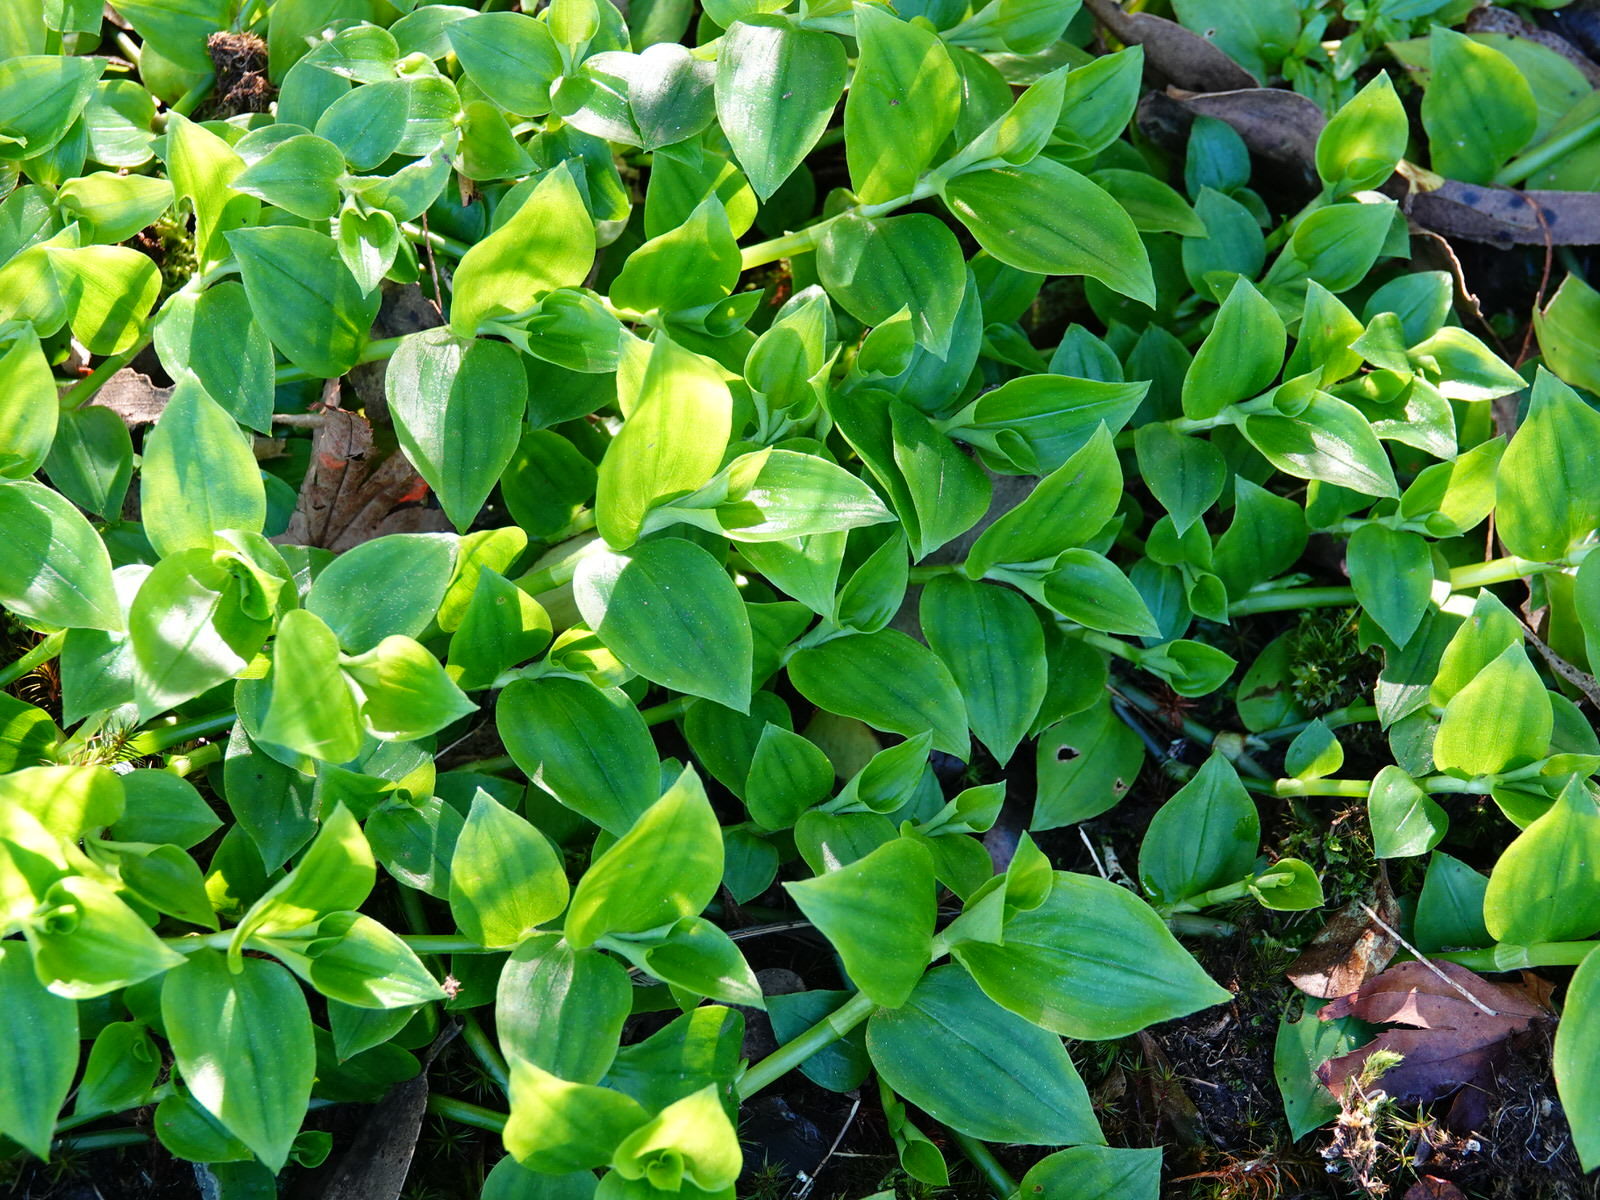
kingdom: Plantae
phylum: Tracheophyta
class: Liliopsida
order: Commelinales
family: Commelinaceae
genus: Tradescantia
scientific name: Tradescantia fluminensis
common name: Wandering-jew
